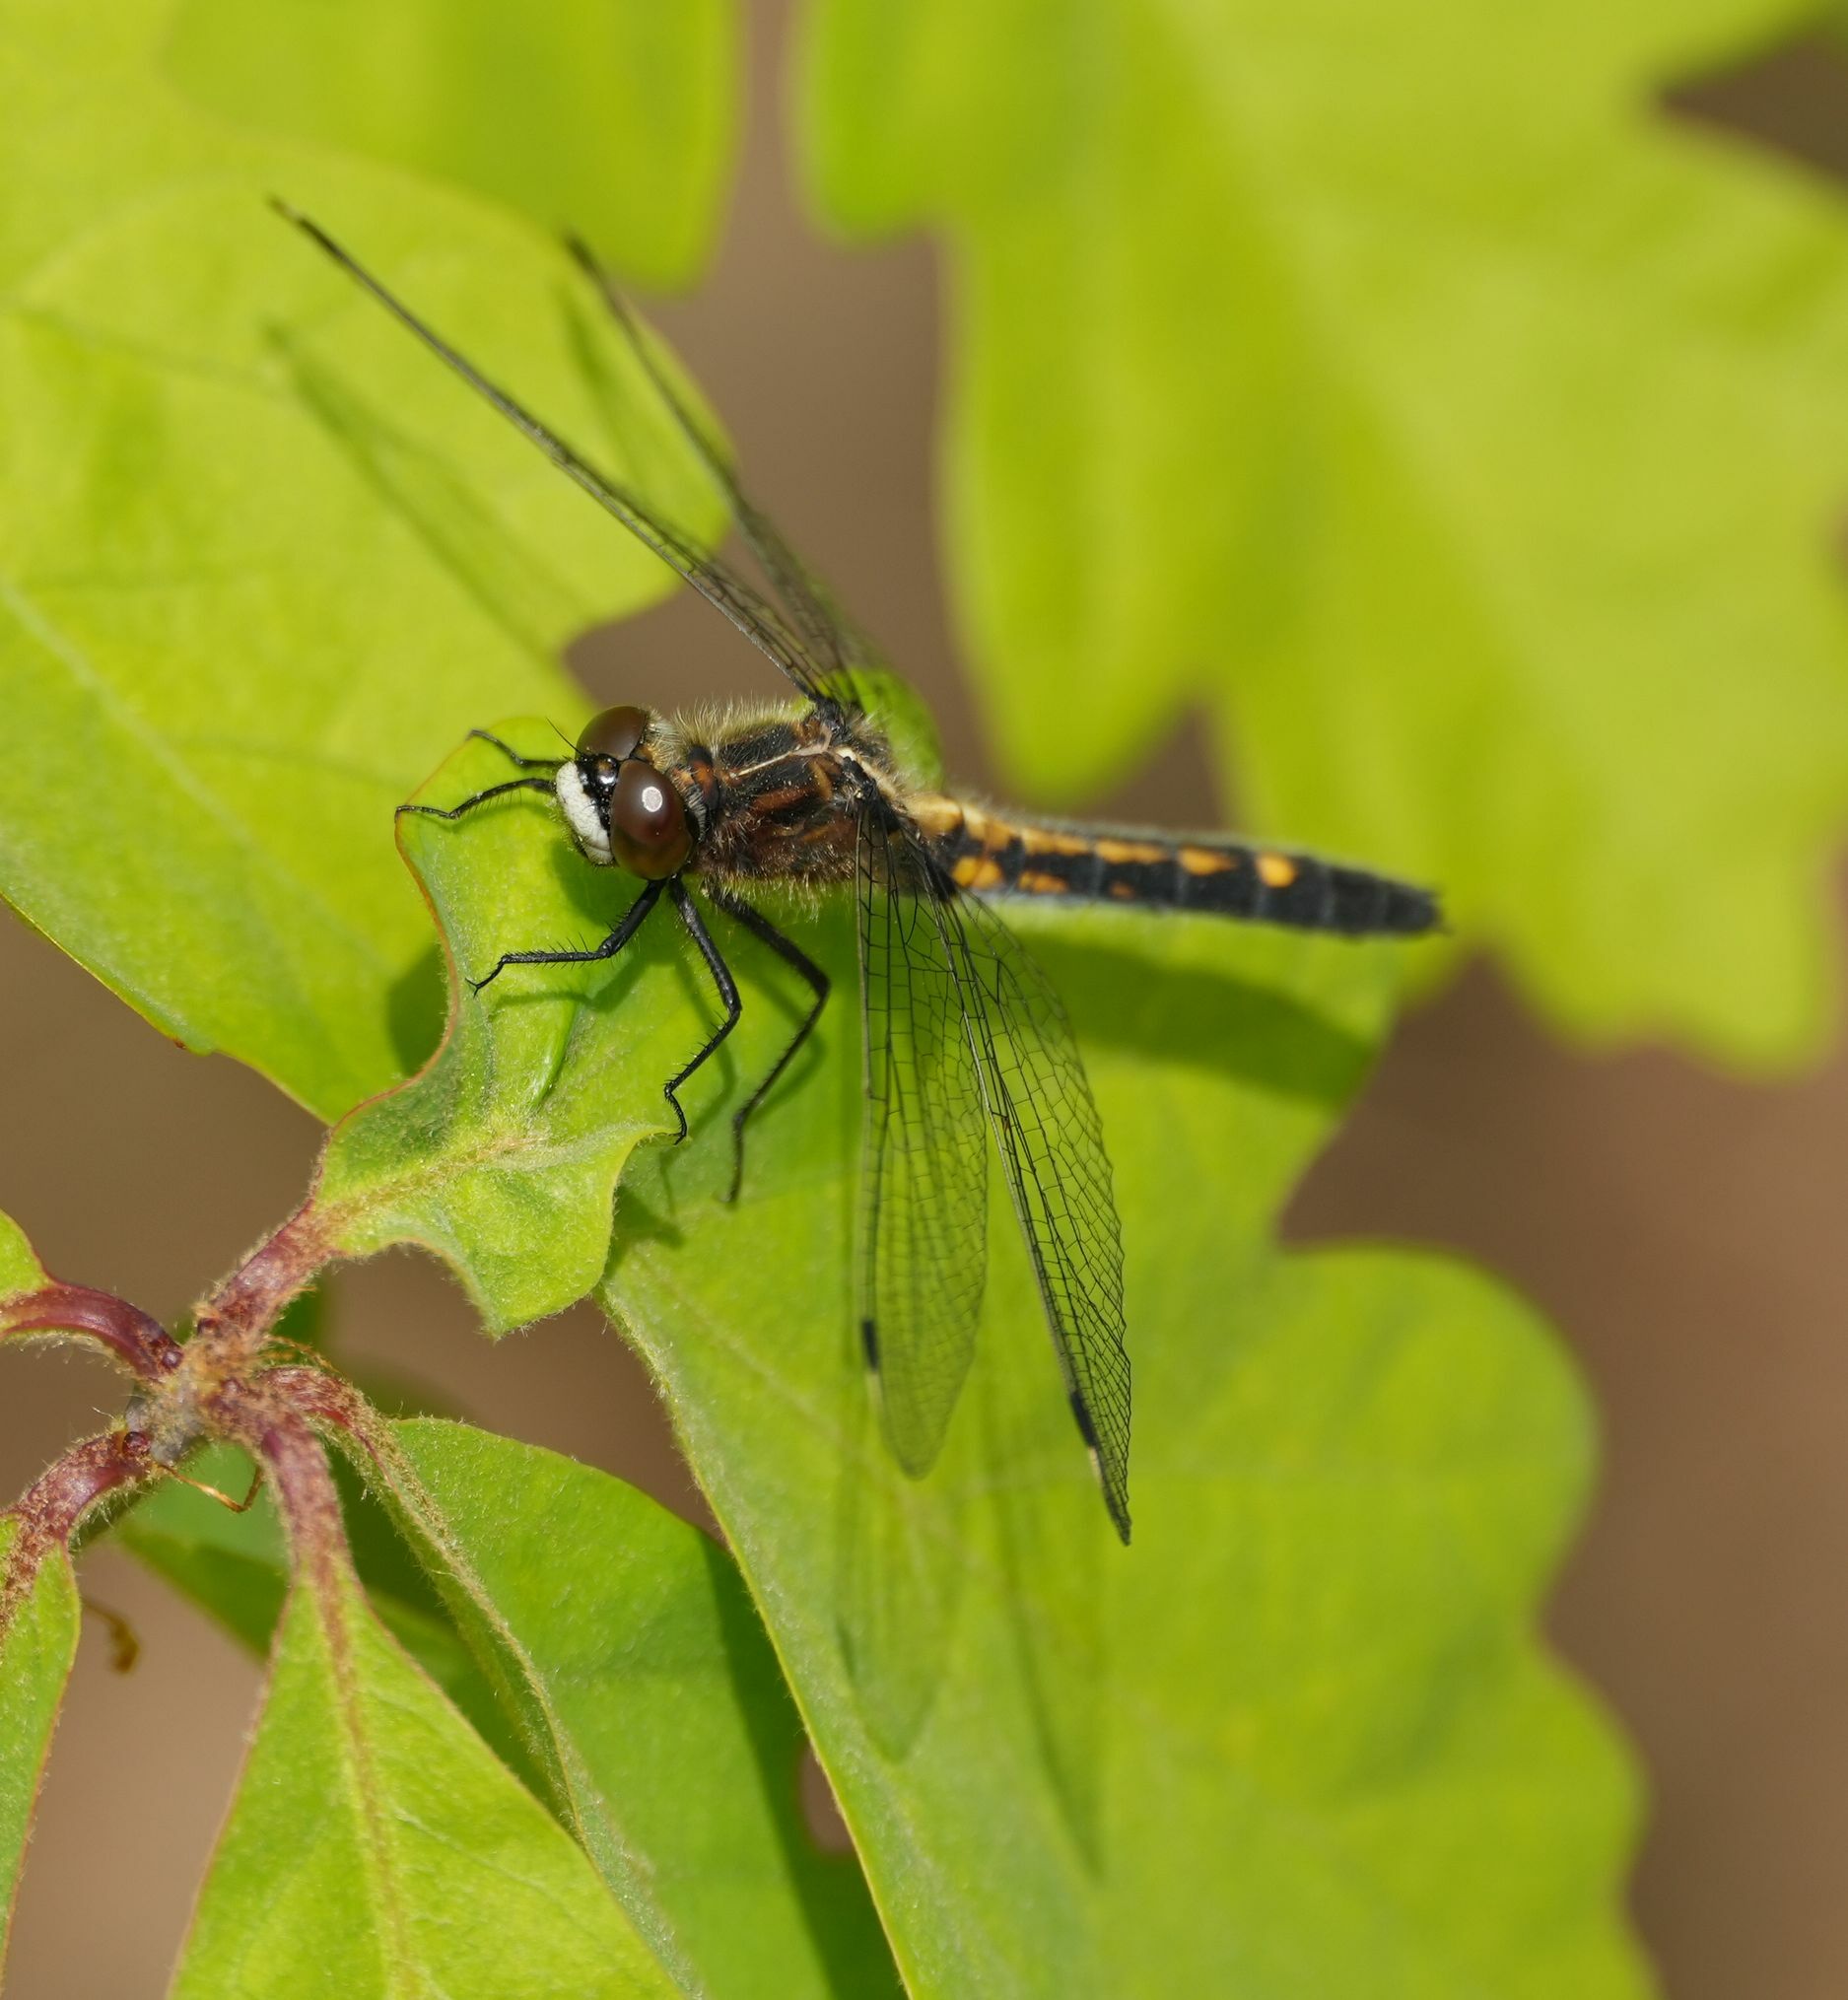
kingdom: Animalia
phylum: Arthropoda
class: Insecta
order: Odonata
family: Libellulidae
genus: Leucorrhinia
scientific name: Leucorrhinia intacta
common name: Dot-tailed whiteface
